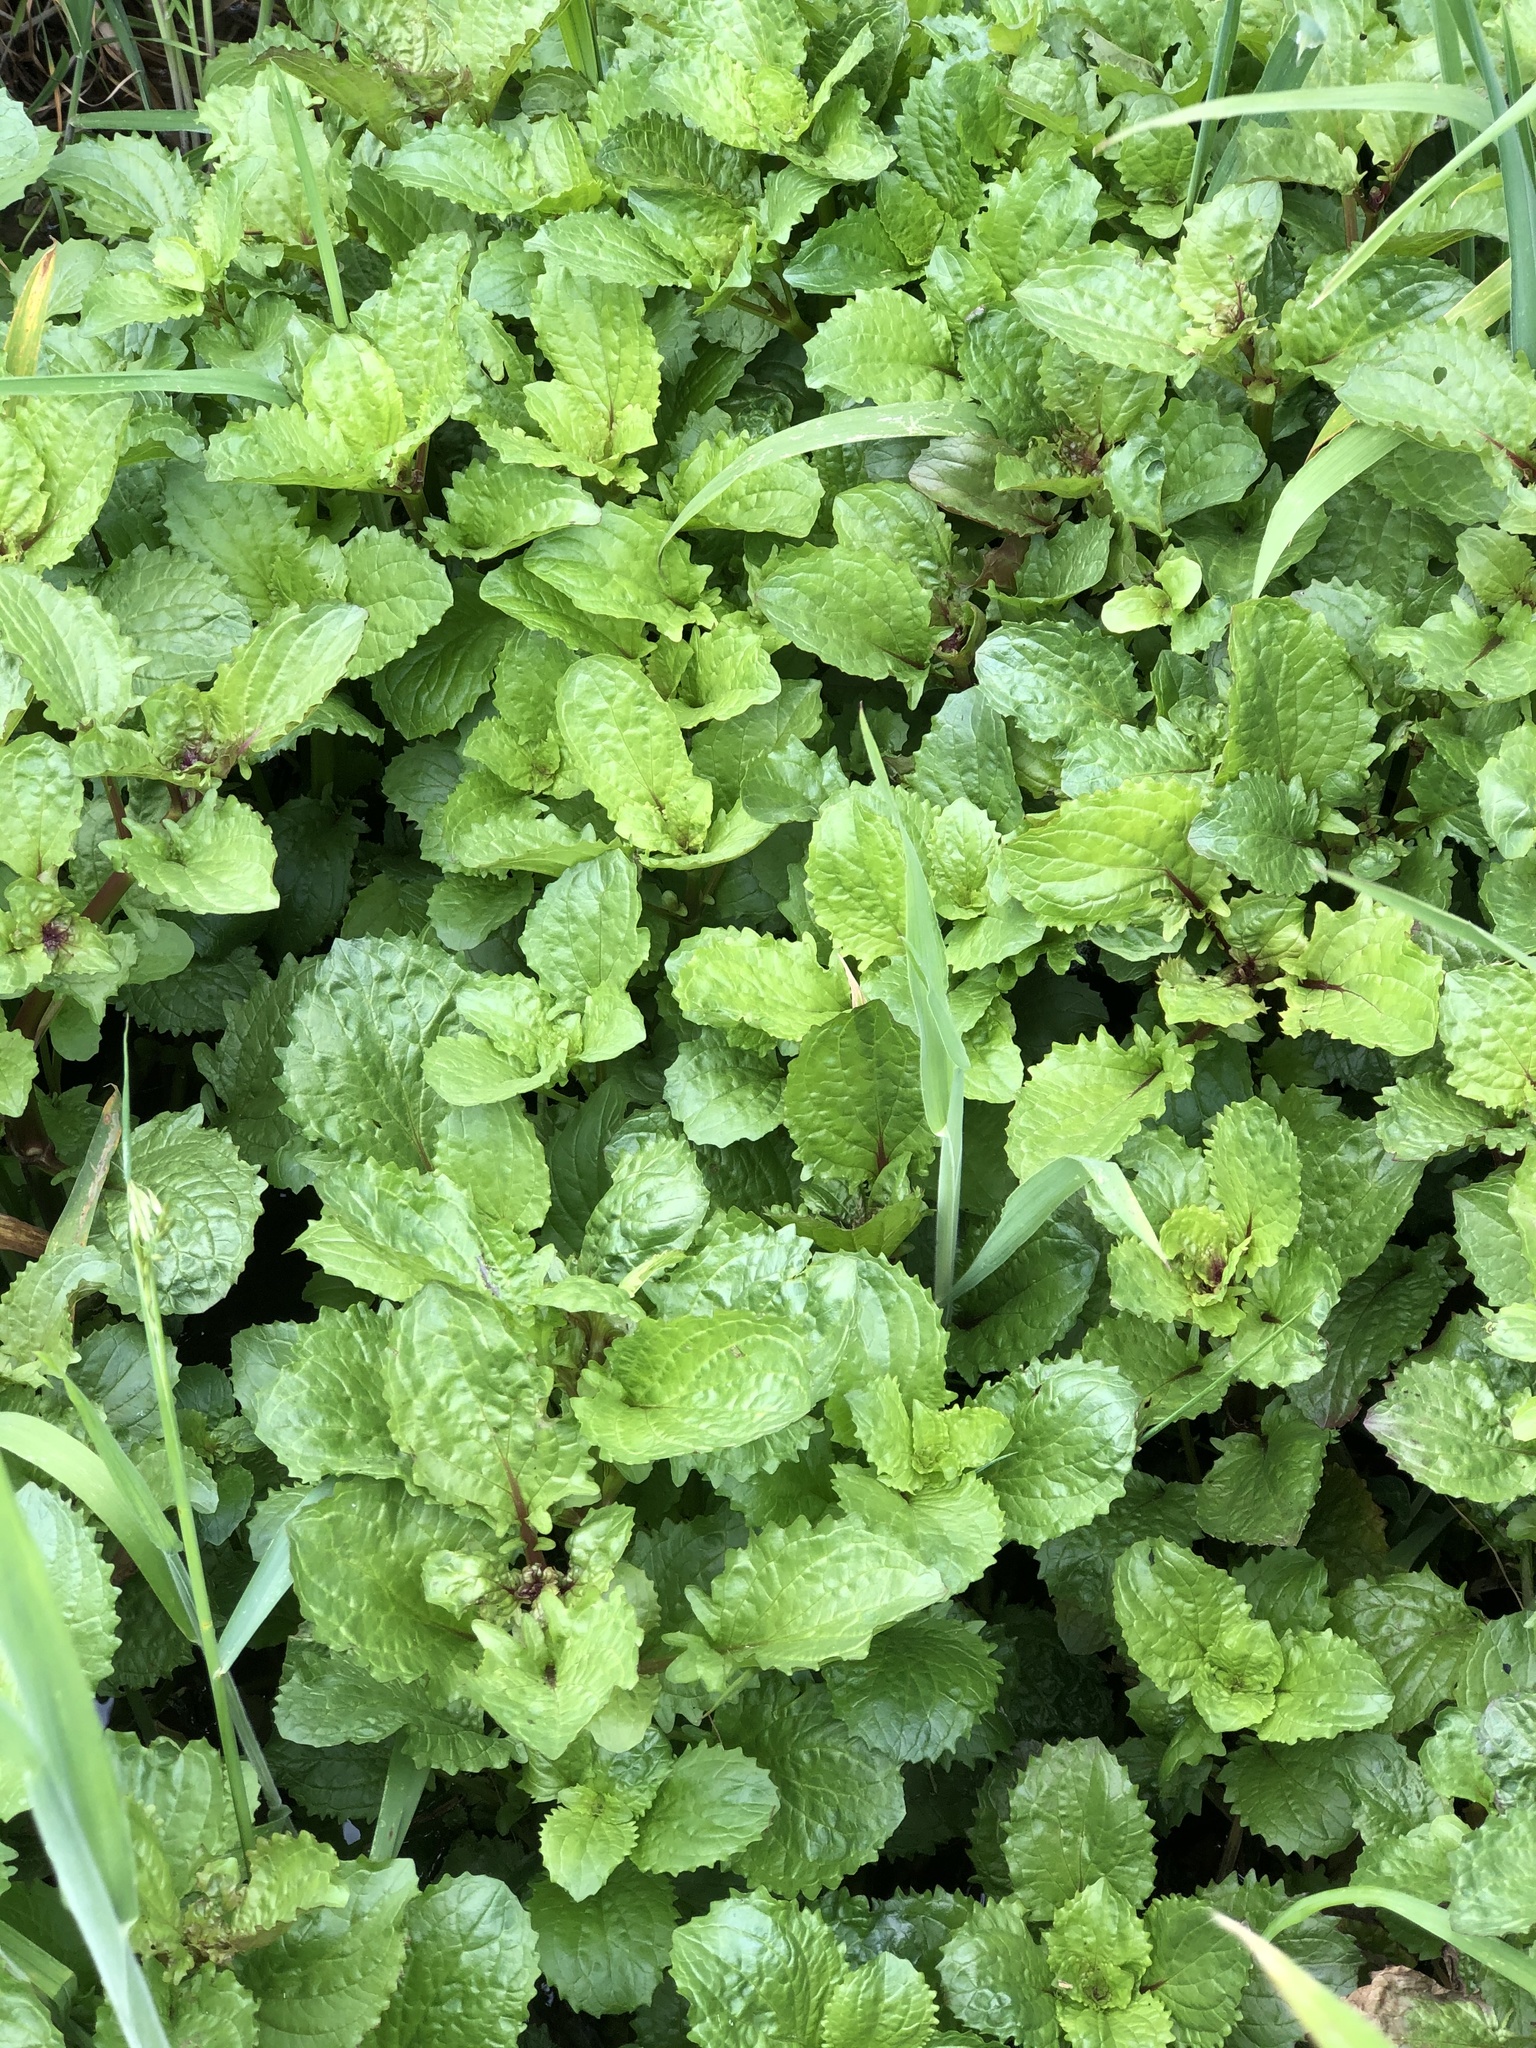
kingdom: Plantae
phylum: Tracheophyta
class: Magnoliopsida
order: Lamiales
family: Phrymaceae
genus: Erythranthe
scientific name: Erythranthe guttata
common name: Monkeyflower
